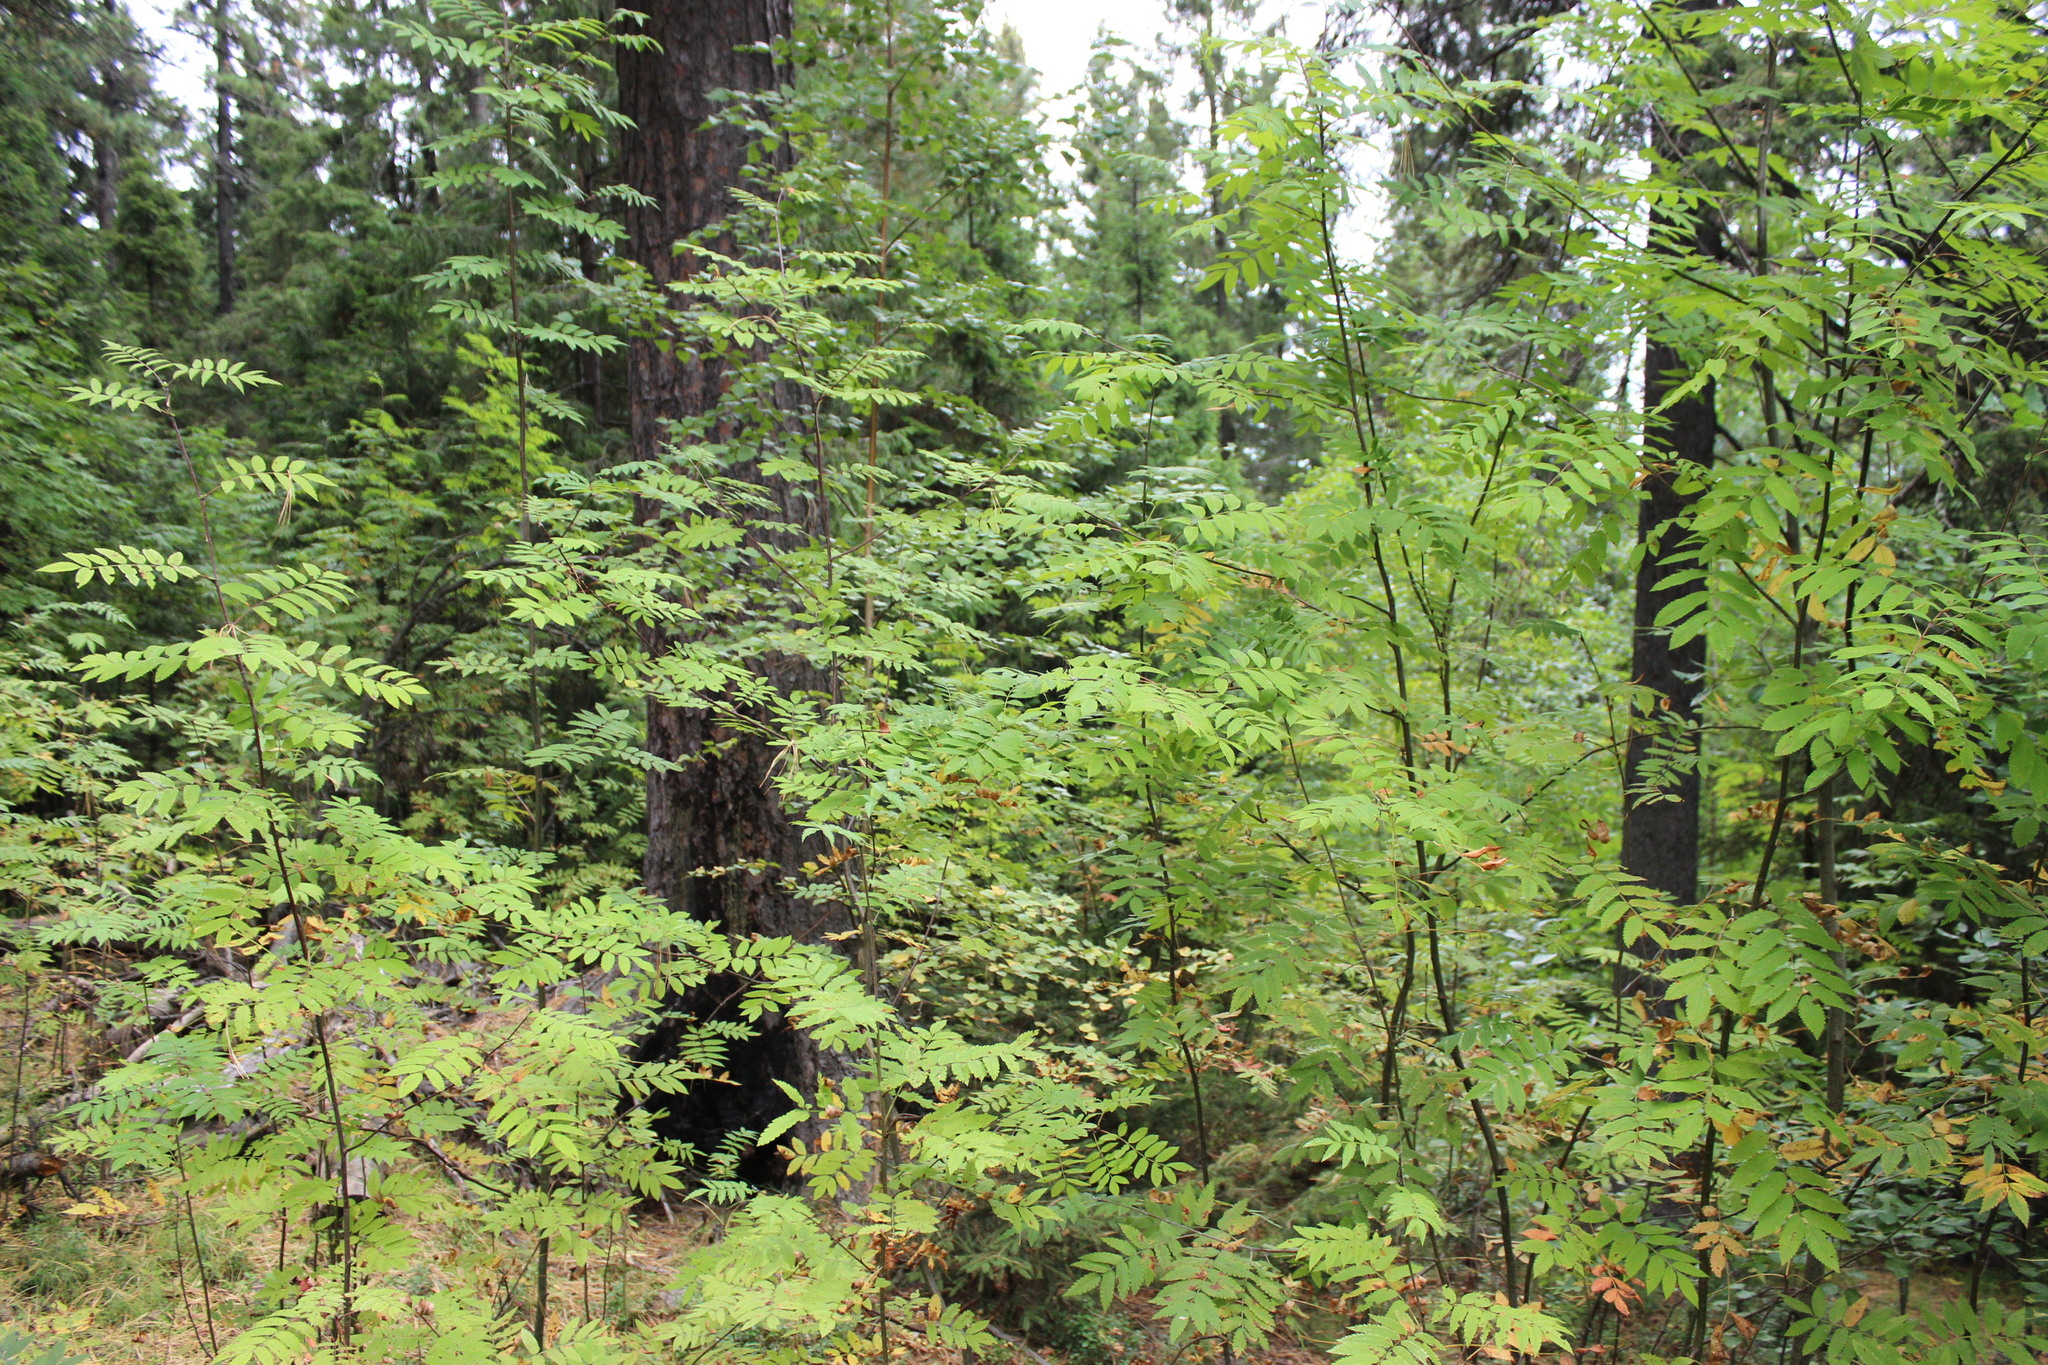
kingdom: Plantae
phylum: Tracheophyta
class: Magnoliopsida
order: Rosales
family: Rosaceae
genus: Sorbus
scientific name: Sorbus aucuparia
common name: Rowan
